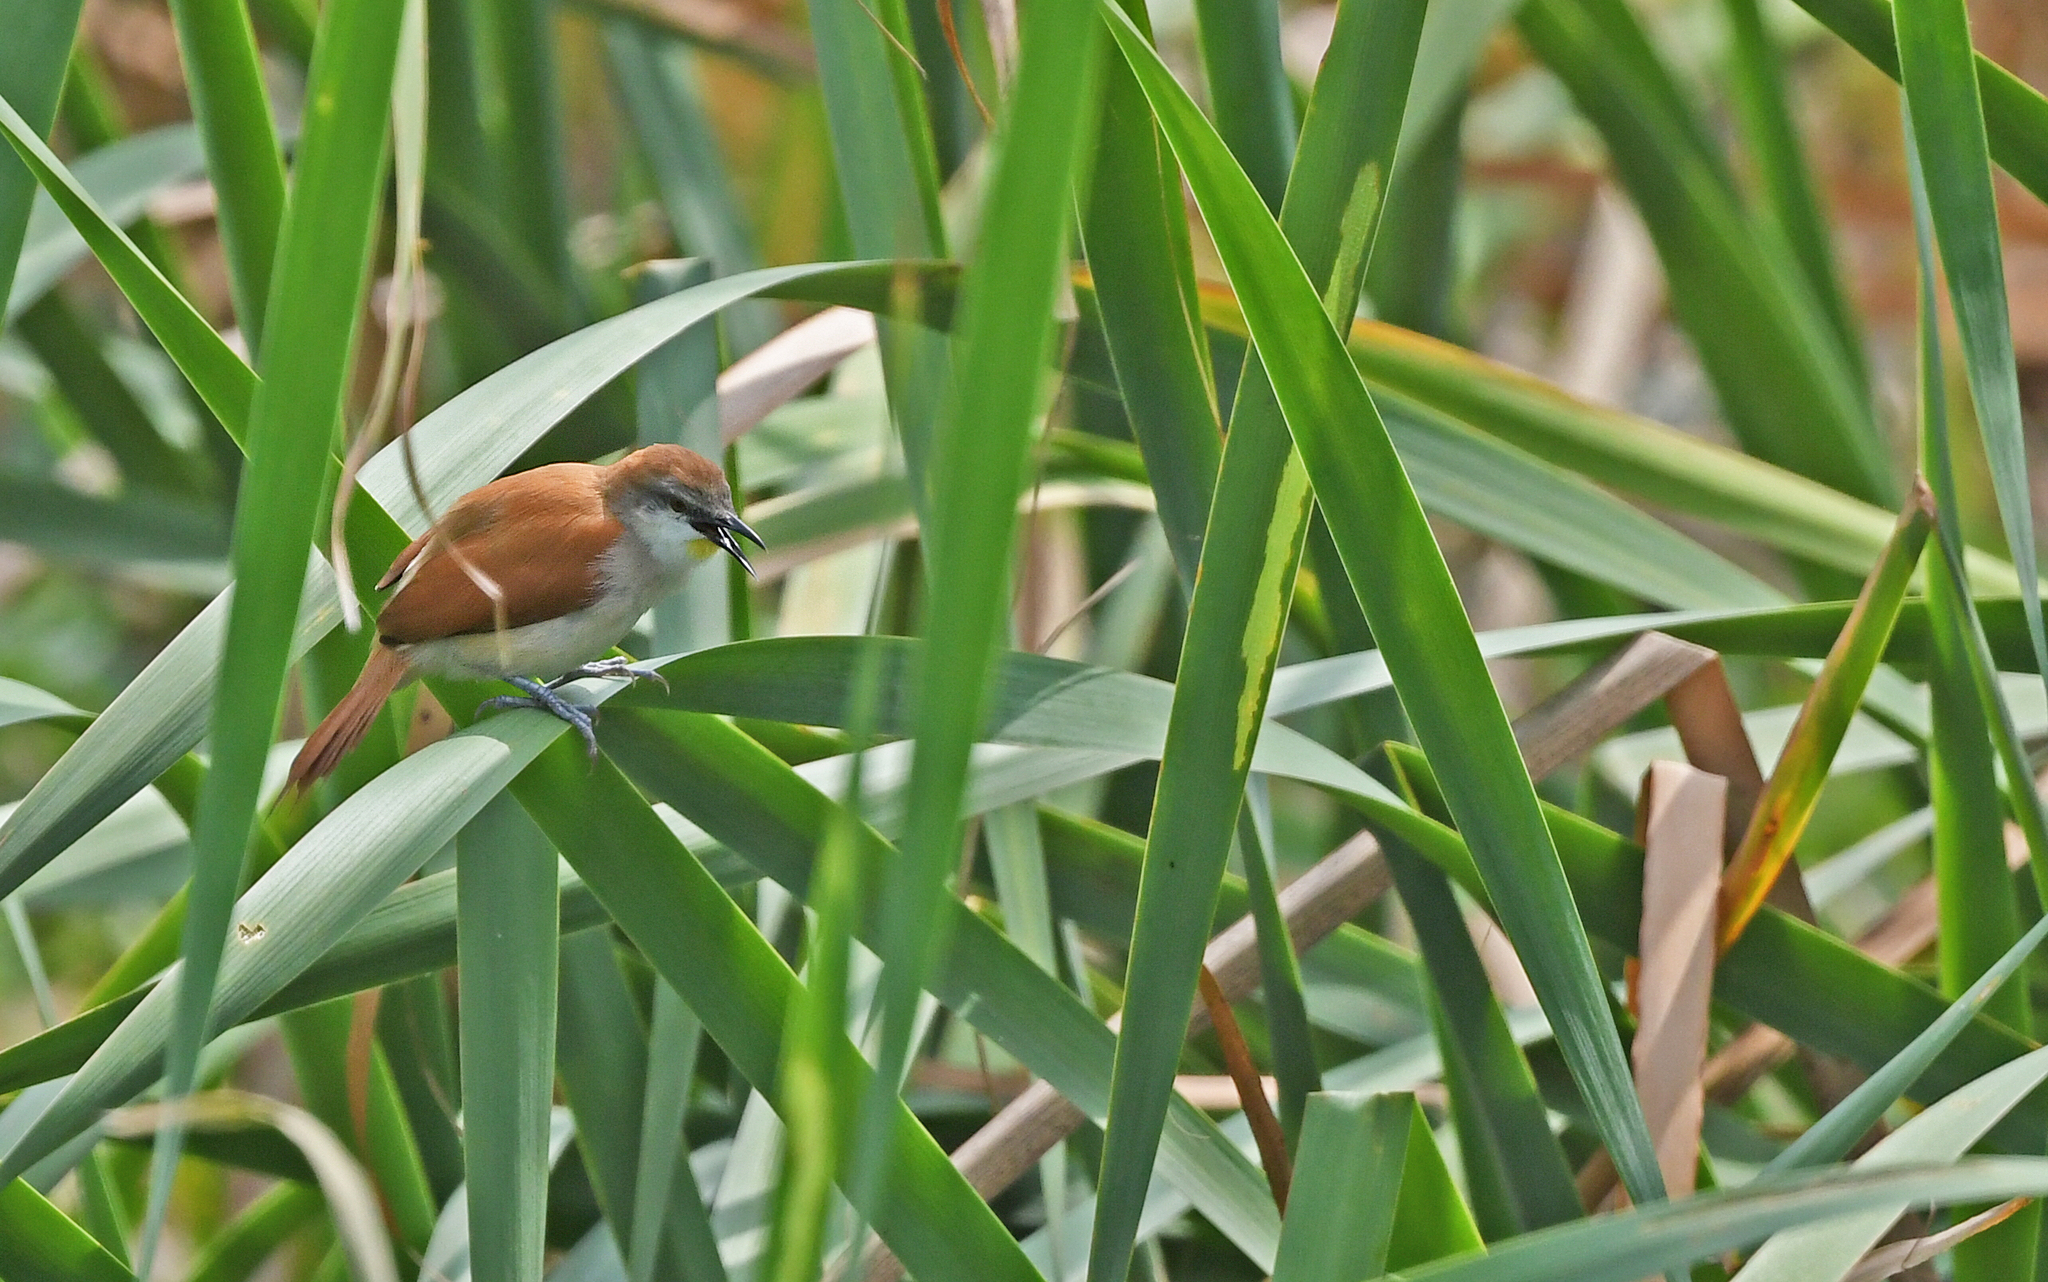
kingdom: Animalia
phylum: Chordata
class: Aves
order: Passeriformes
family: Furnariidae
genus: Certhiaxis
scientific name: Certhiaxis cinnamomeus
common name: Yellow-chinned spinetail
